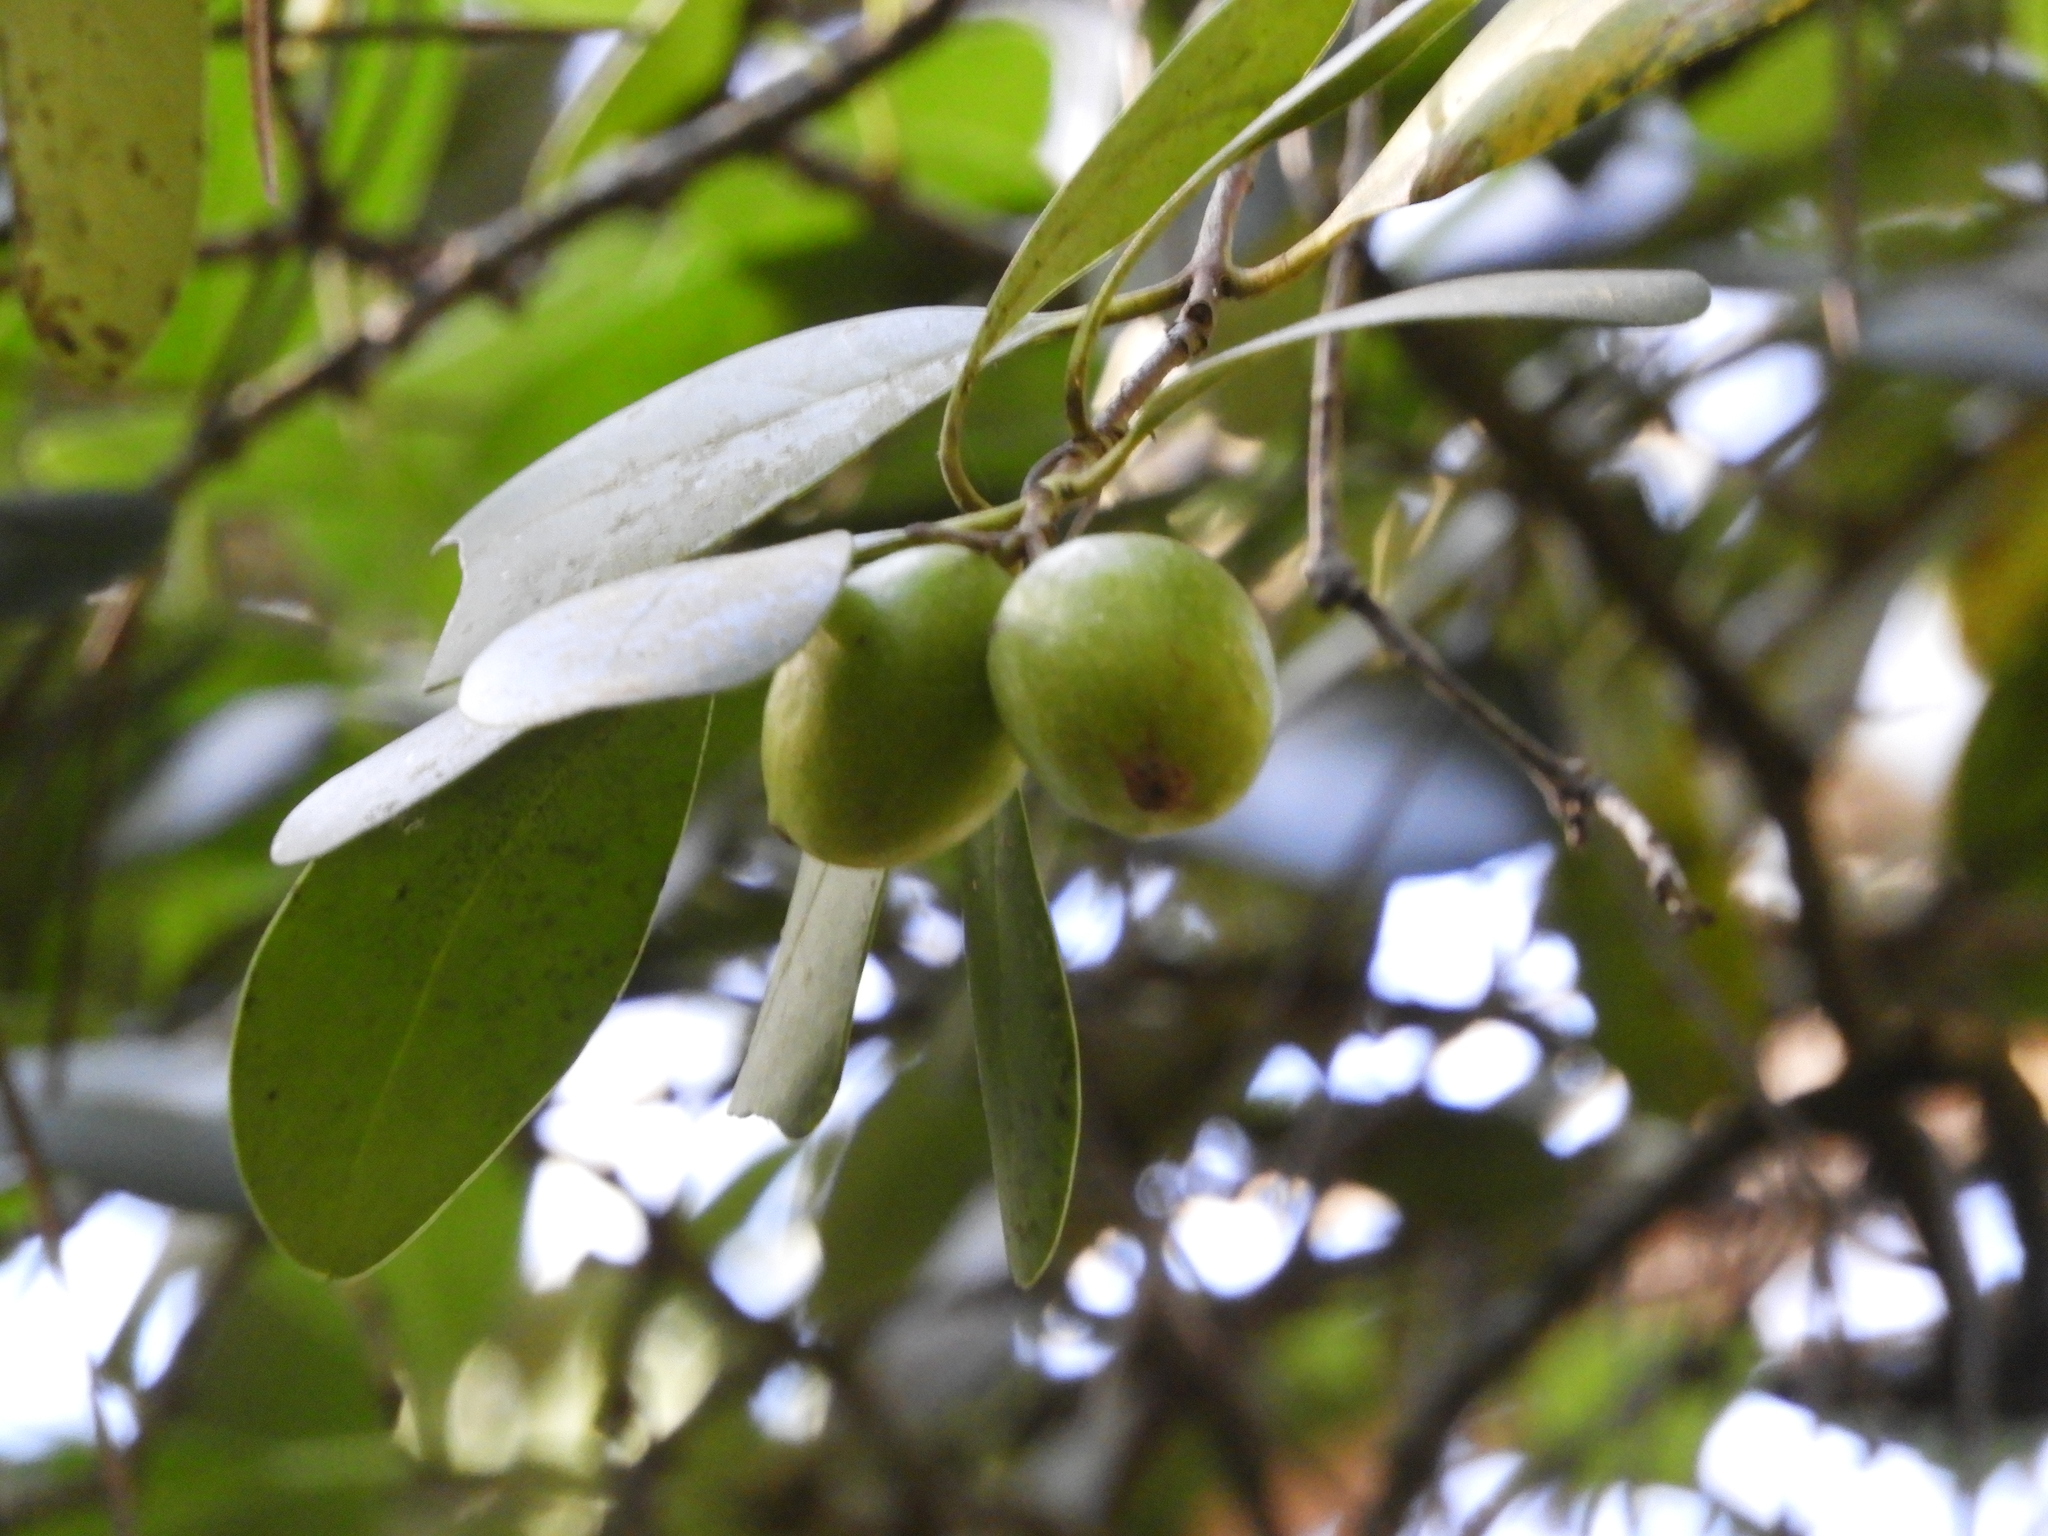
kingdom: Plantae
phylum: Tracheophyta
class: Magnoliopsida
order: Laurales
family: Gomortegaceae
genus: Gomortega
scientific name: Gomortega keule
